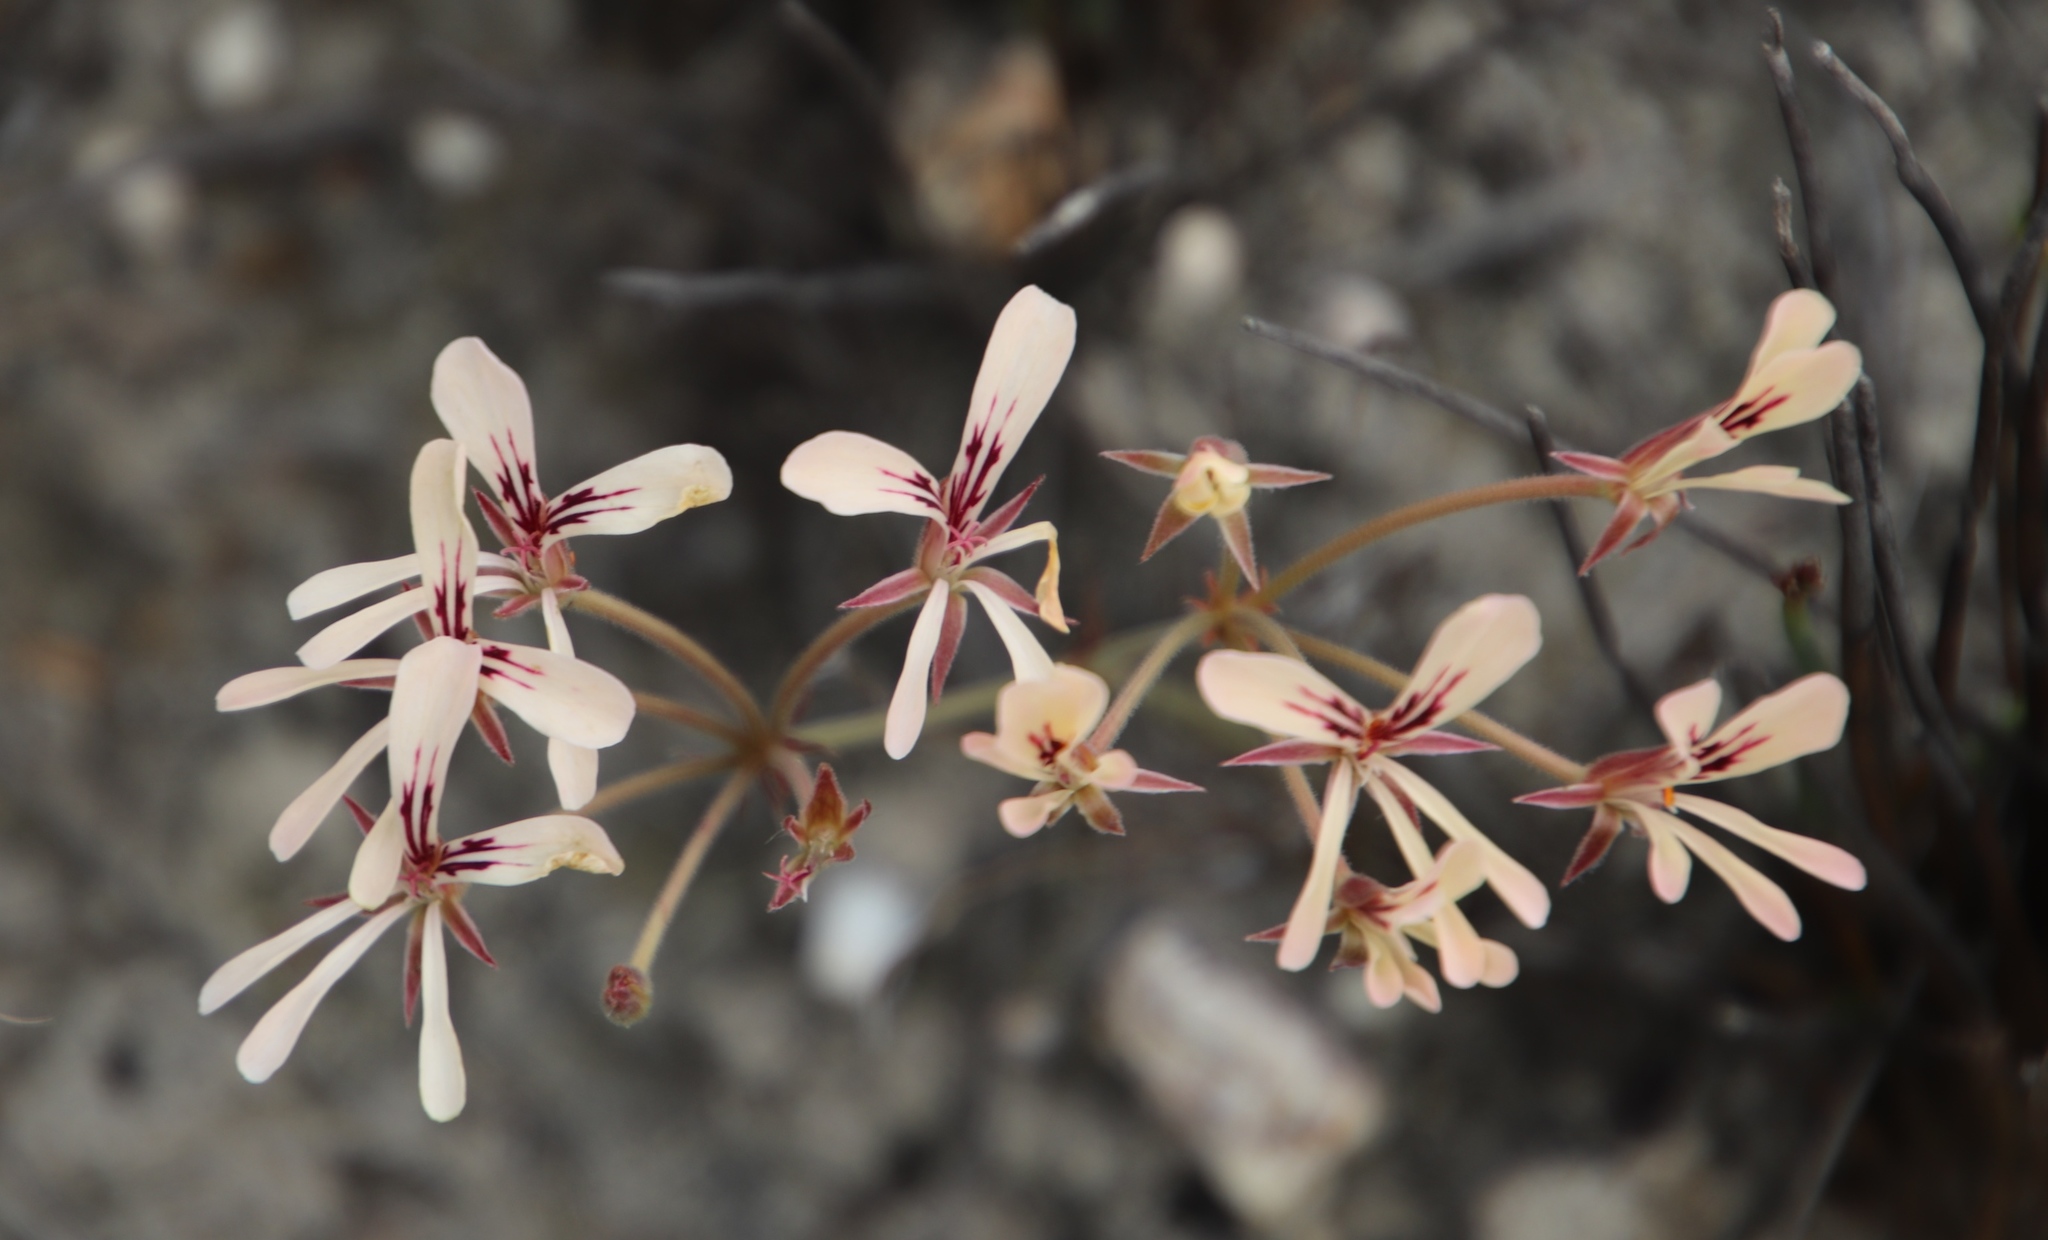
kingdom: Plantae
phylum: Tracheophyta
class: Magnoliopsida
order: Geraniales
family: Geraniaceae
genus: Pelargonium
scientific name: Pelargonium carneum
